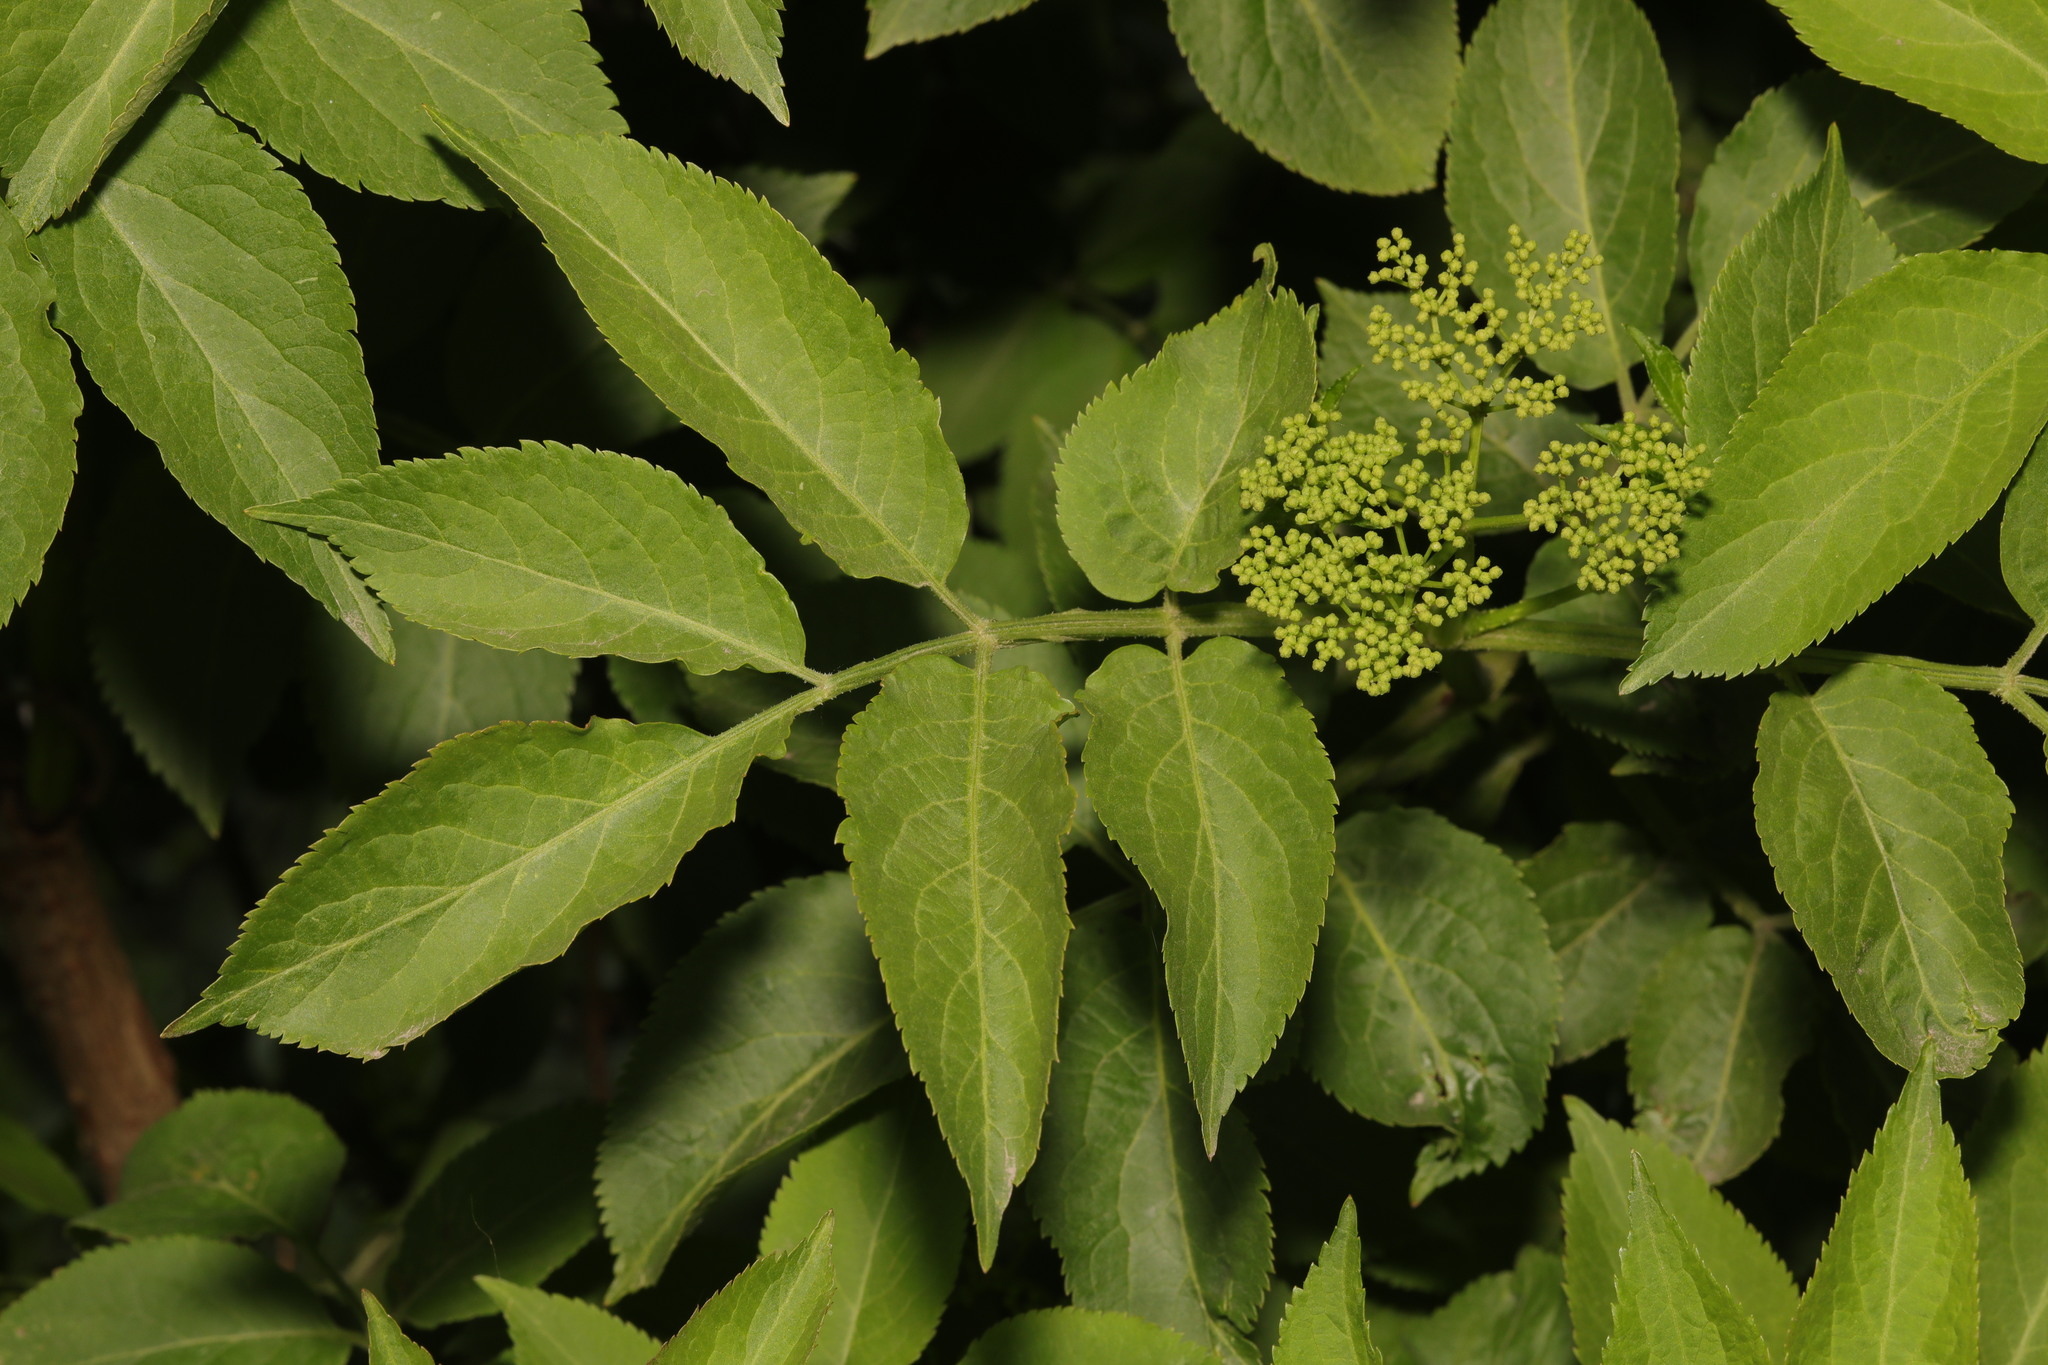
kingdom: Plantae
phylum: Tracheophyta
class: Magnoliopsida
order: Dipsacales
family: Viburnaceae
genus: Sambucus
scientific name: Sambucus nigra
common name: Elder
